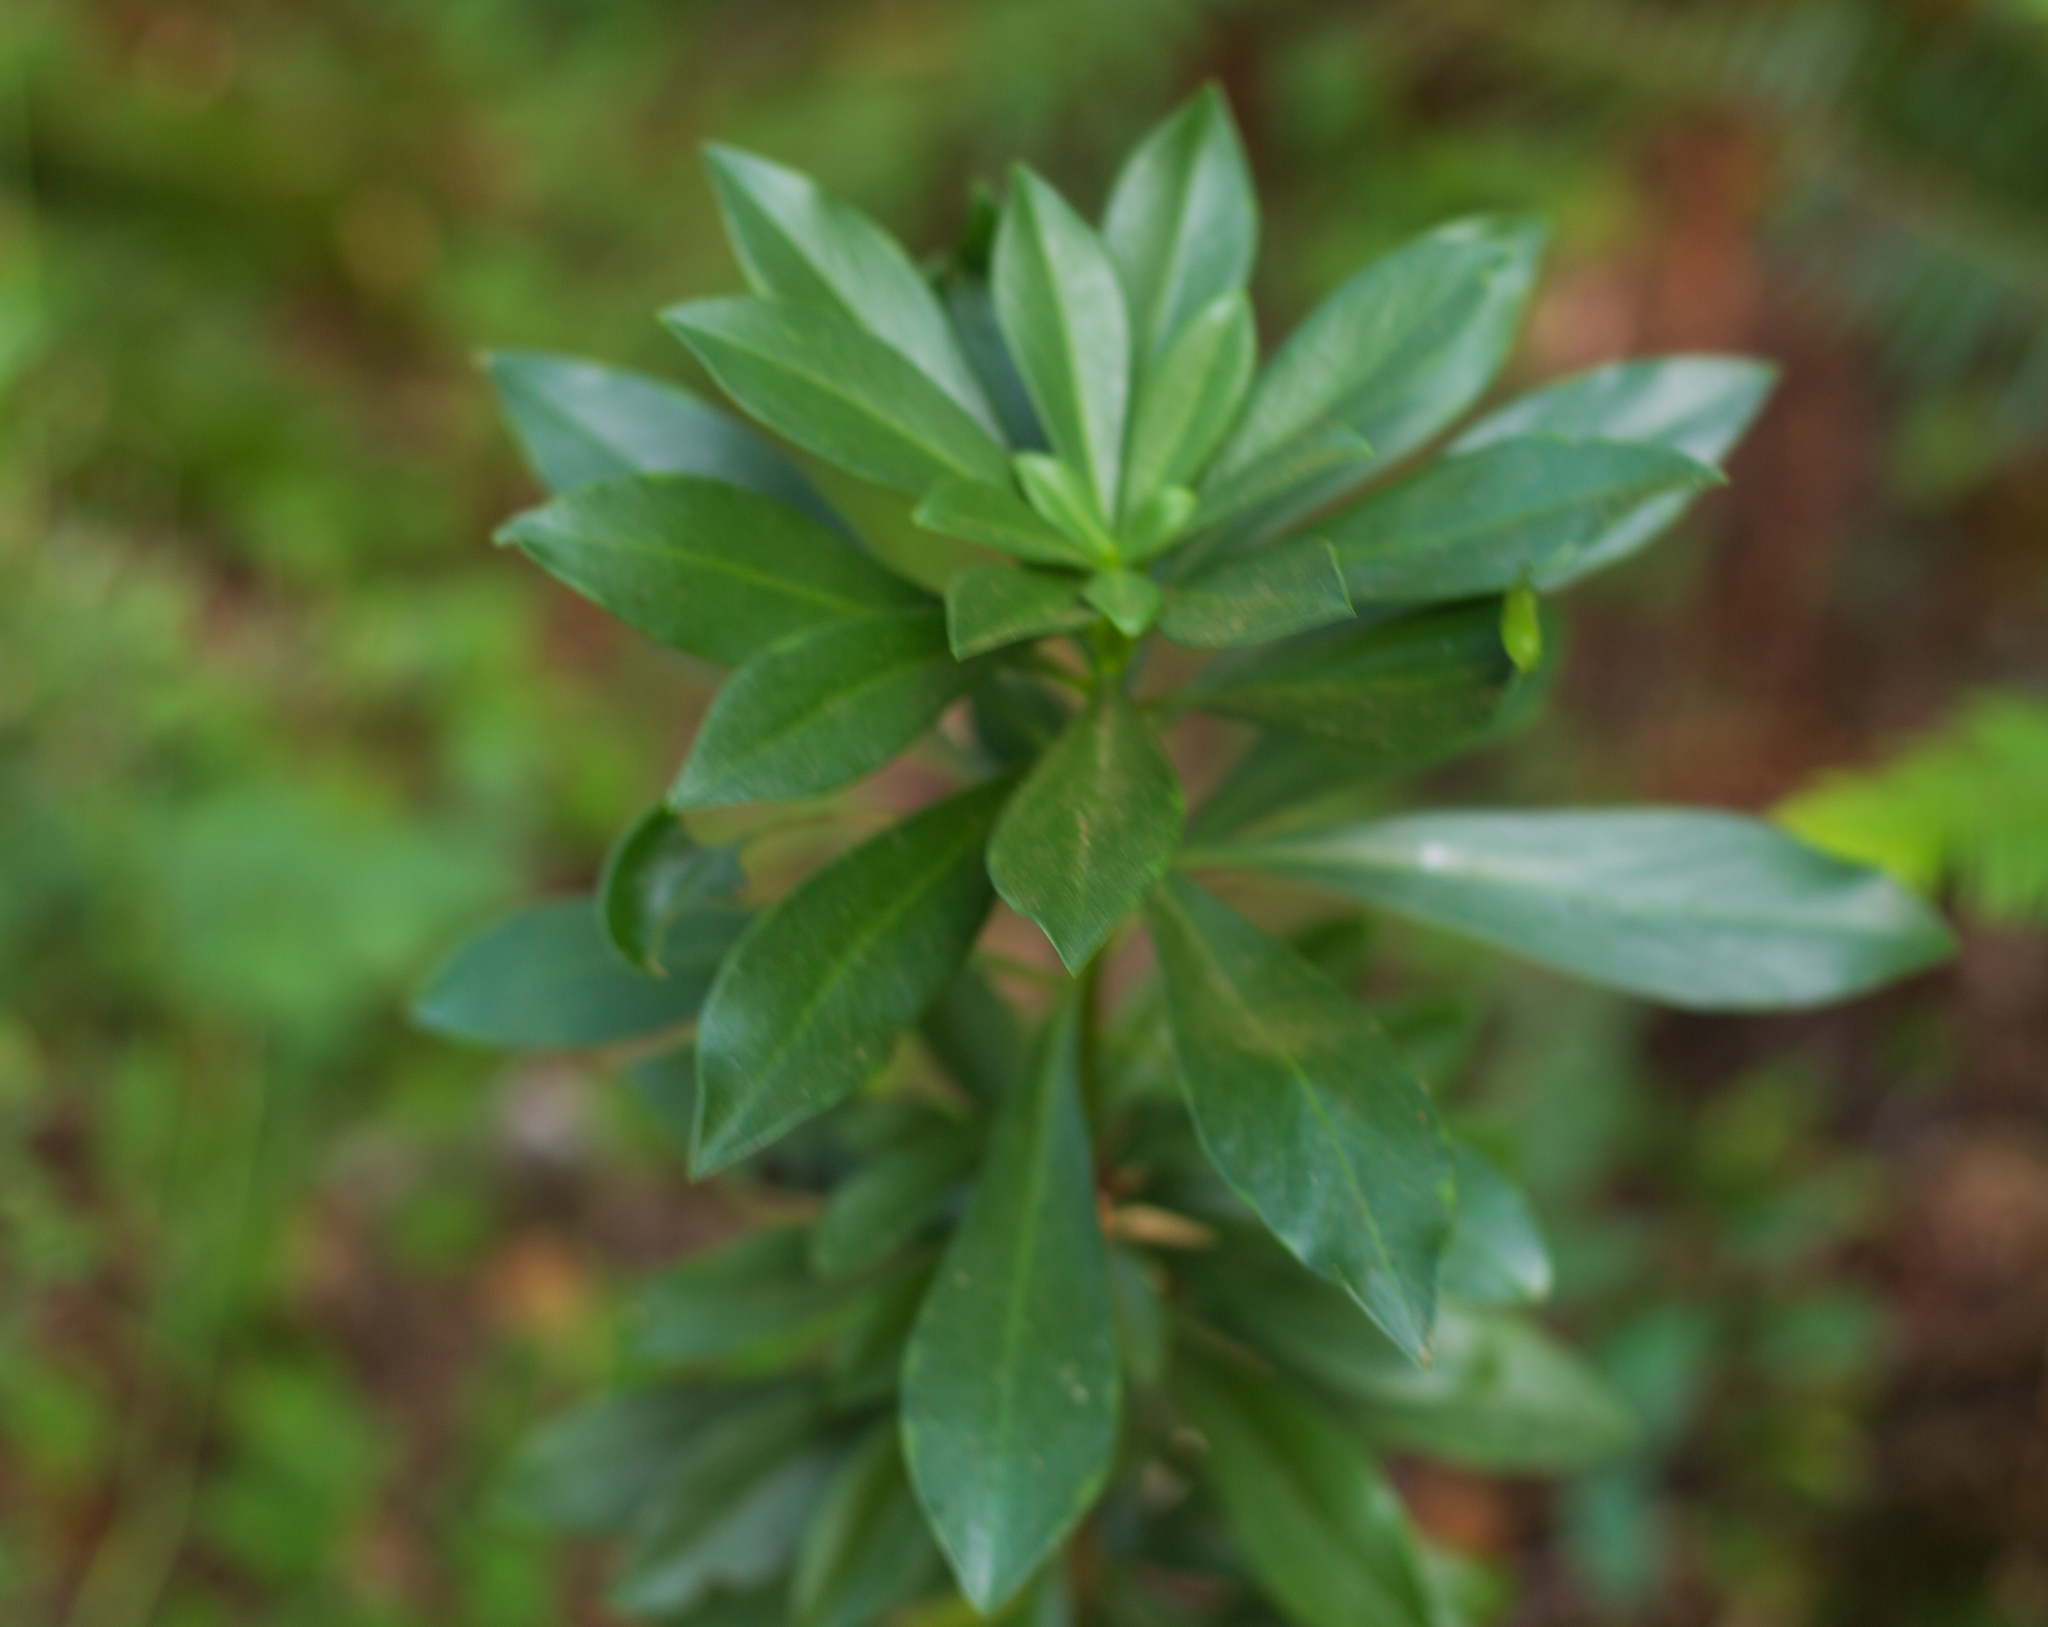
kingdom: Plantae
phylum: Tracheophyta
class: Magnoliopsida
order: Malvales
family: Thymelaeaceae
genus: Daphne
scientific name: Daphne laureola
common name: Spurge-laurel
